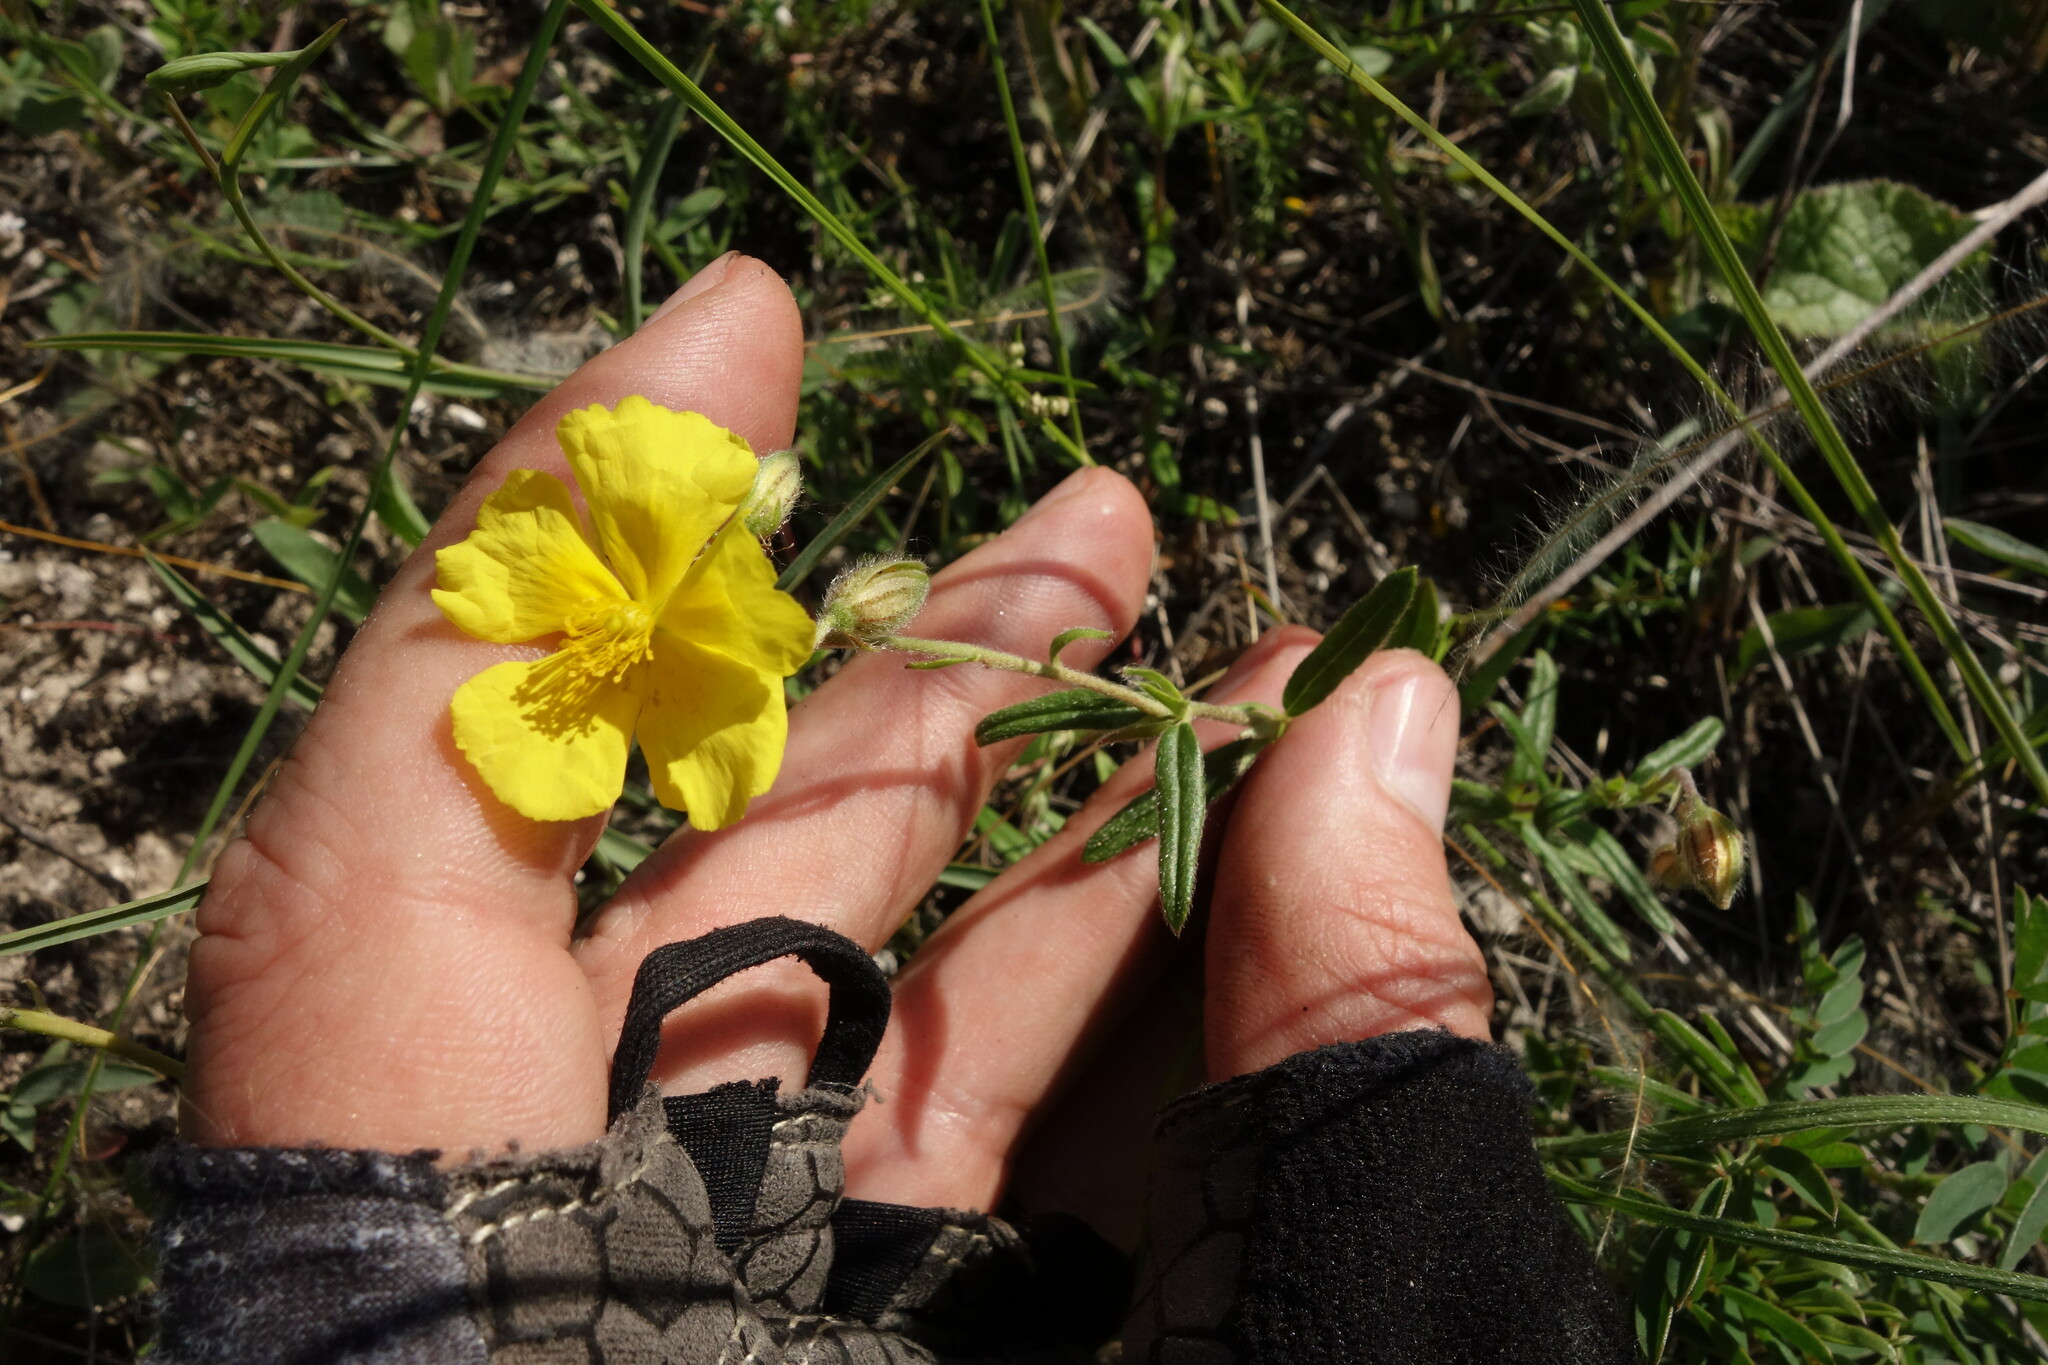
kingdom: Plantae
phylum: Tracheophyta
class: Magnoliopsida
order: Malvales
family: Cistaceae
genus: Helianthemum
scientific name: Helianthemum nummularium
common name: Common rock-rose
